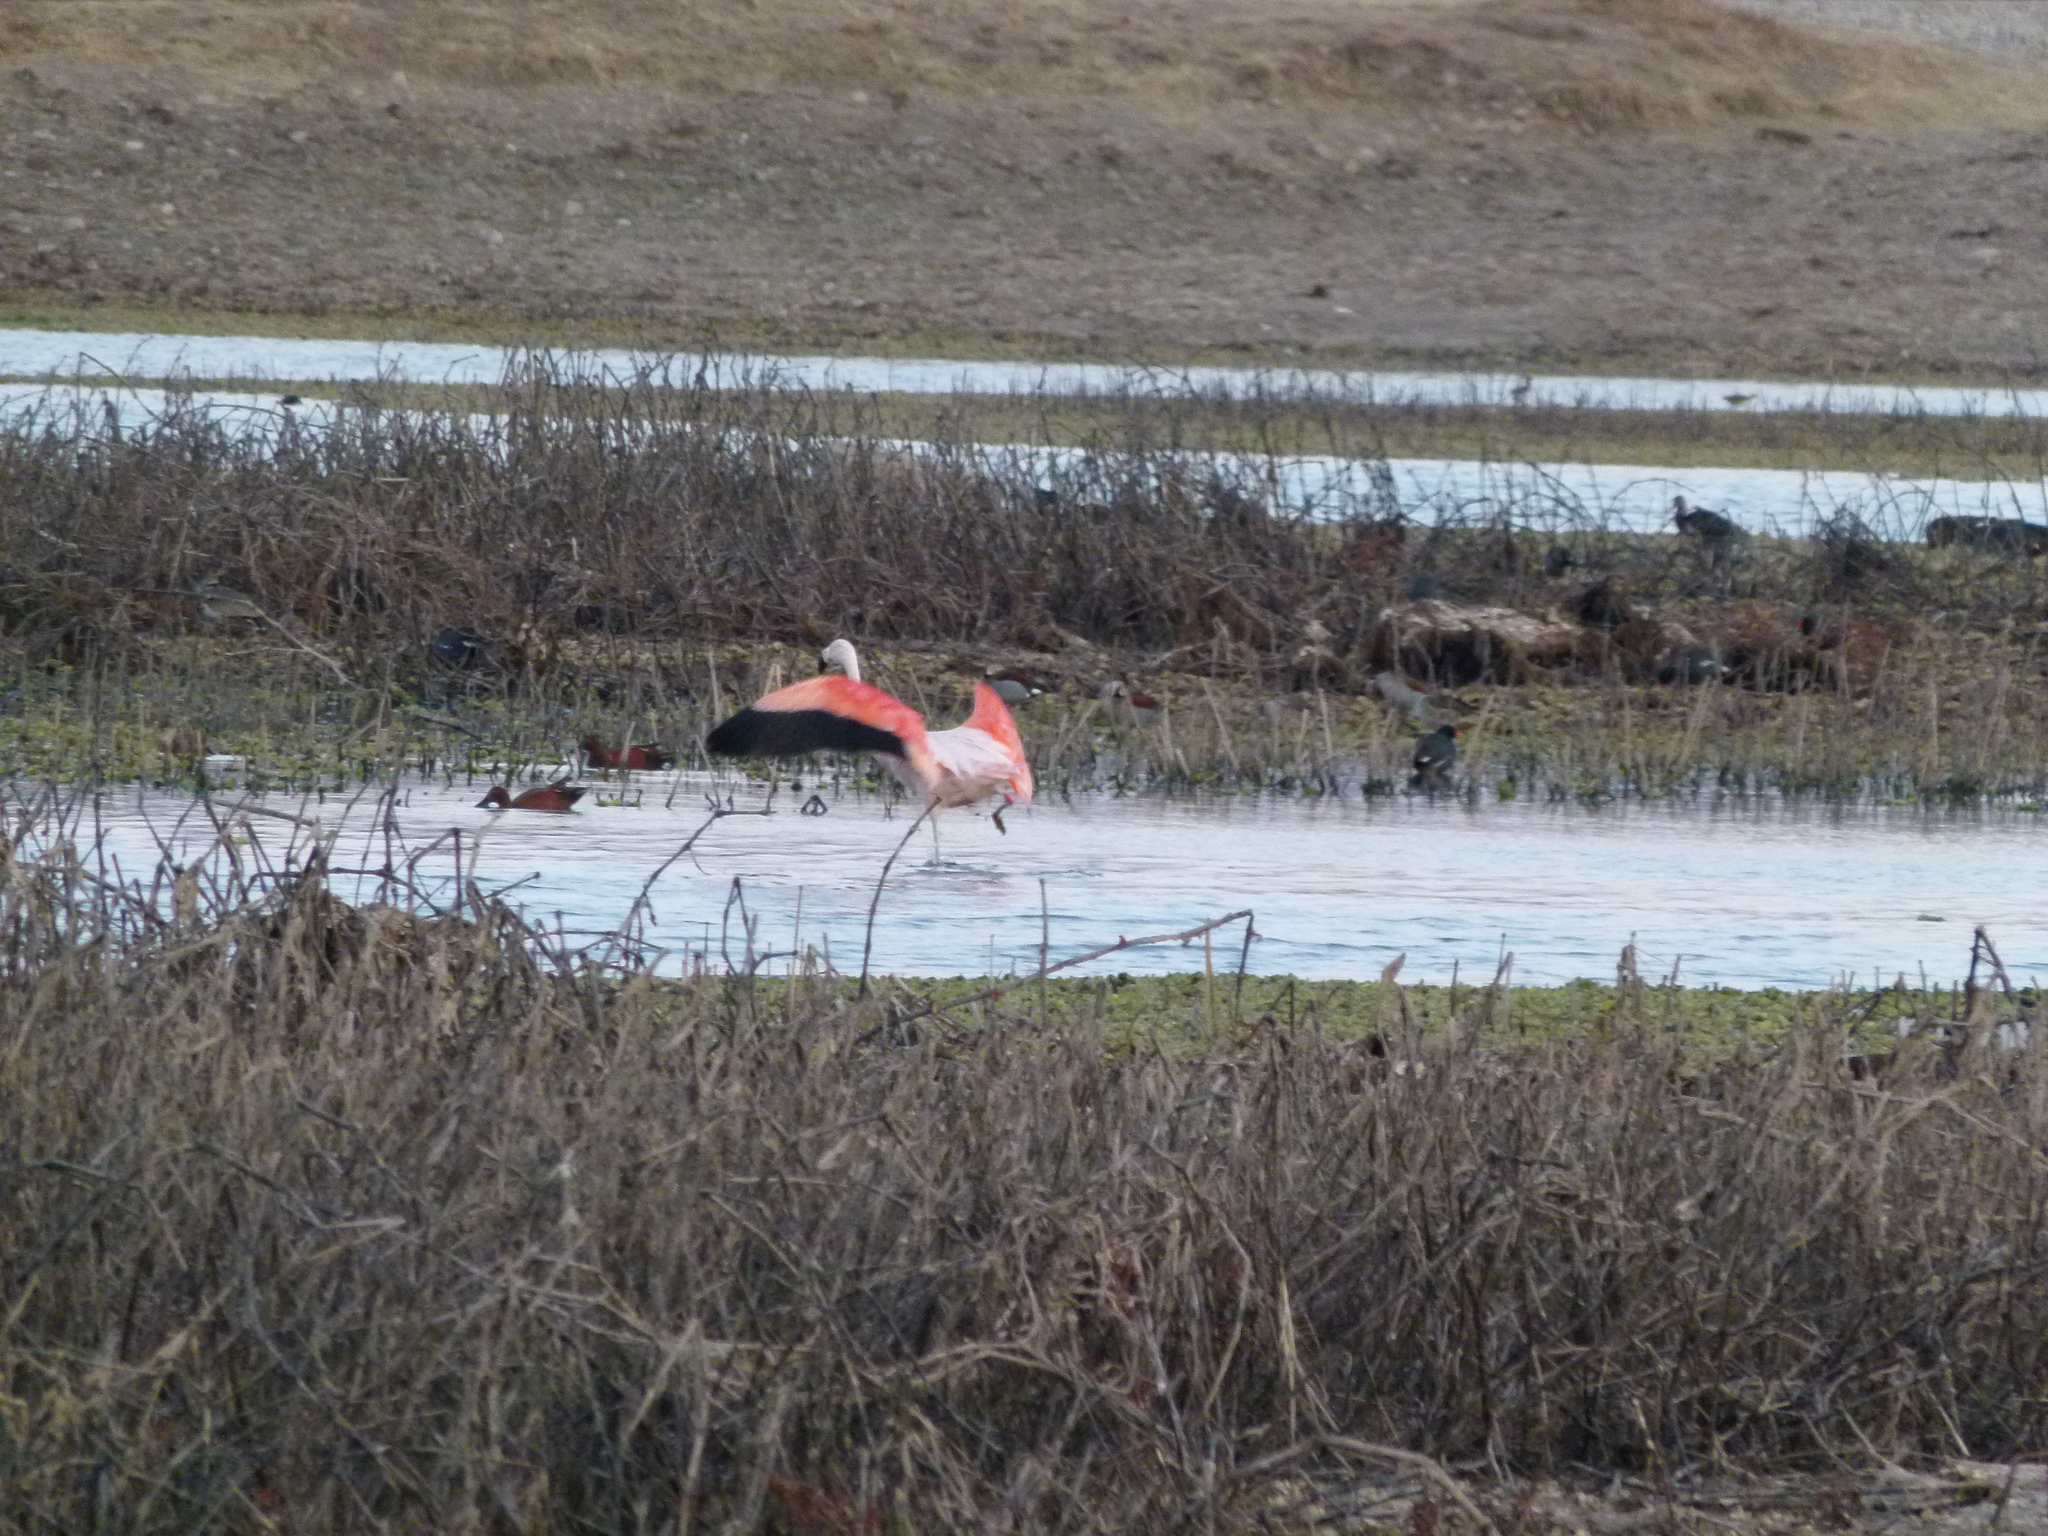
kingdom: Animalia
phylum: Chordata
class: Aves
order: Phoenicopteriformes
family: Phoenicopteridae
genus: Phoenicopterus
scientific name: Phoenicopterus chilensis
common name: Chilean flamingo
